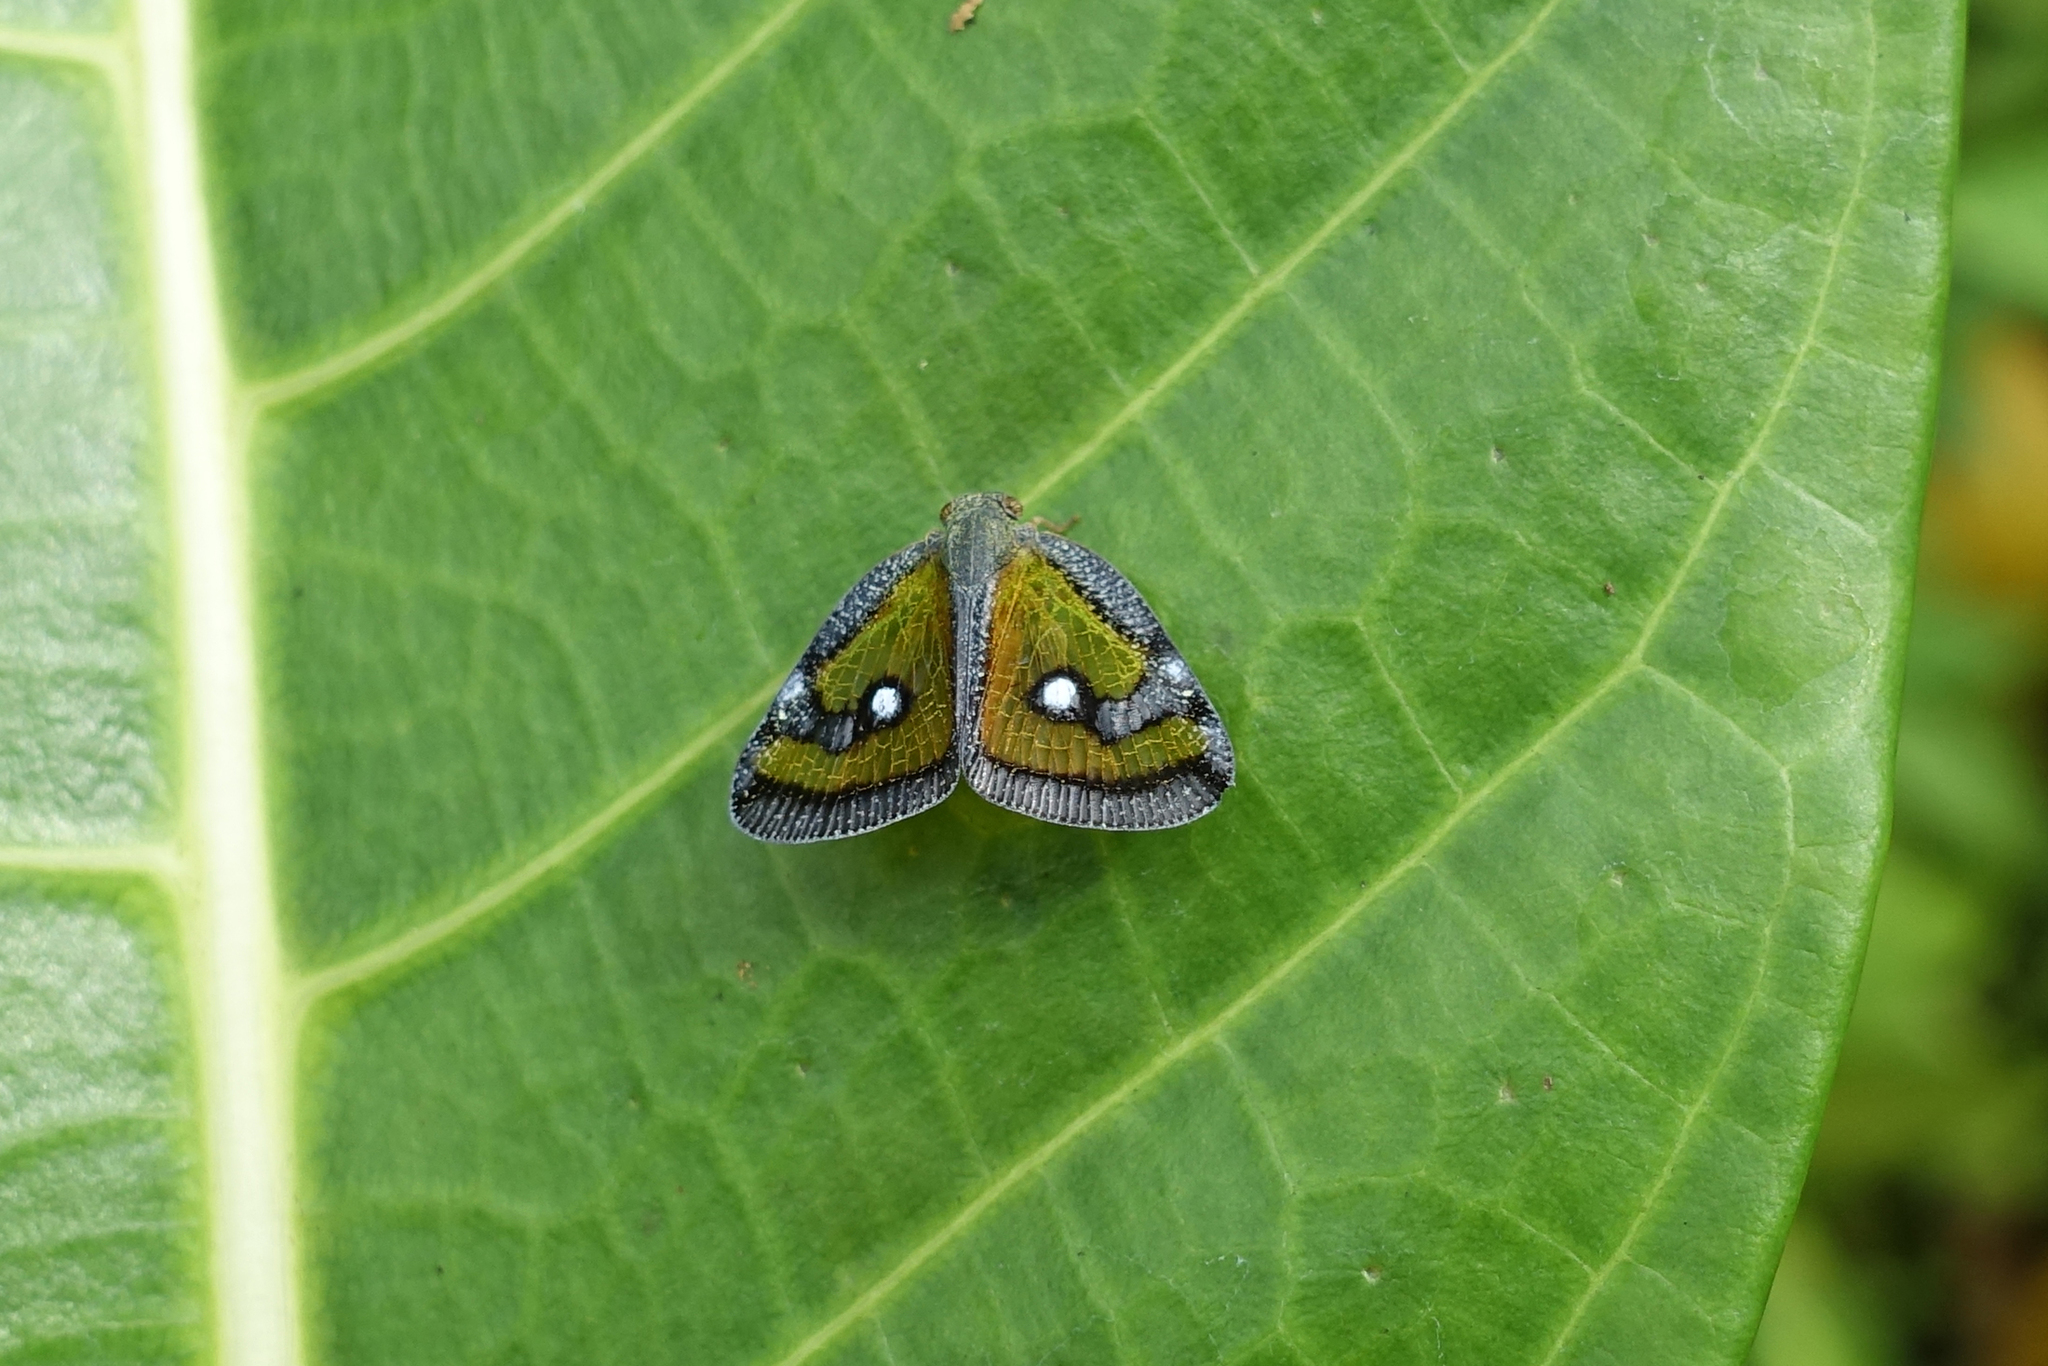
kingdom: Animalia
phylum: Arthropoda
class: Insecta
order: Hemiptera
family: Ricaniidae
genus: Euricania
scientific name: Euricania splendida
